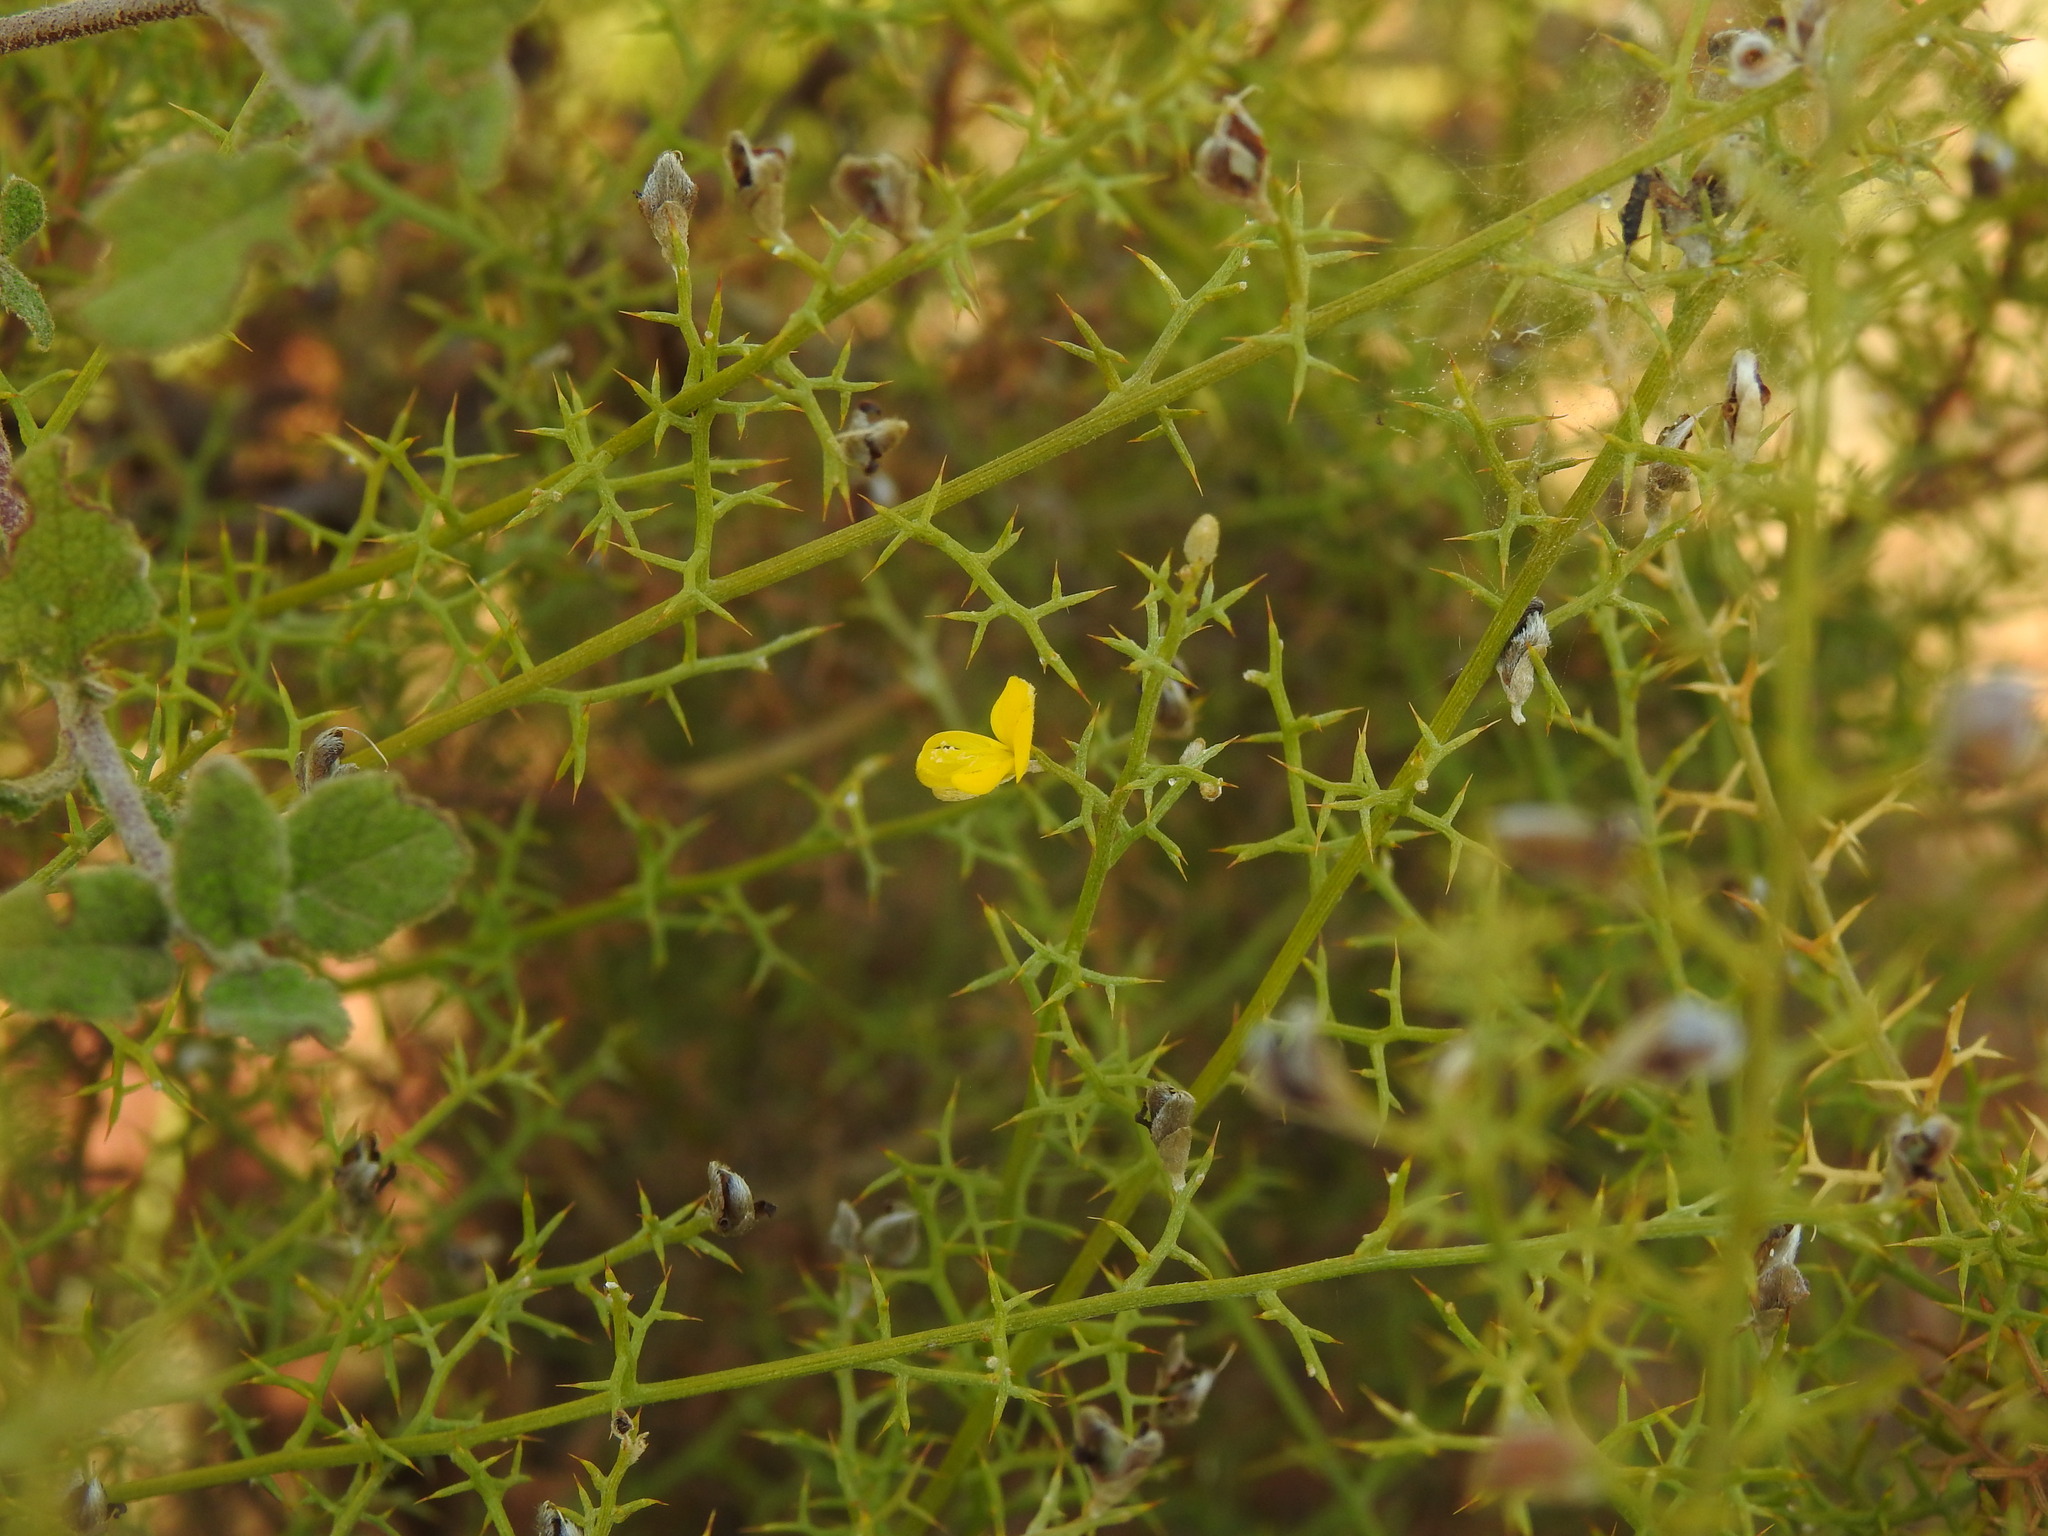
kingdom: Plantae
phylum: Tracheophyta
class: Magnoliopsida
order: Fabales
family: Fabaceae
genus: Stauracanthus
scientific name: Stauracanthus boivinii
